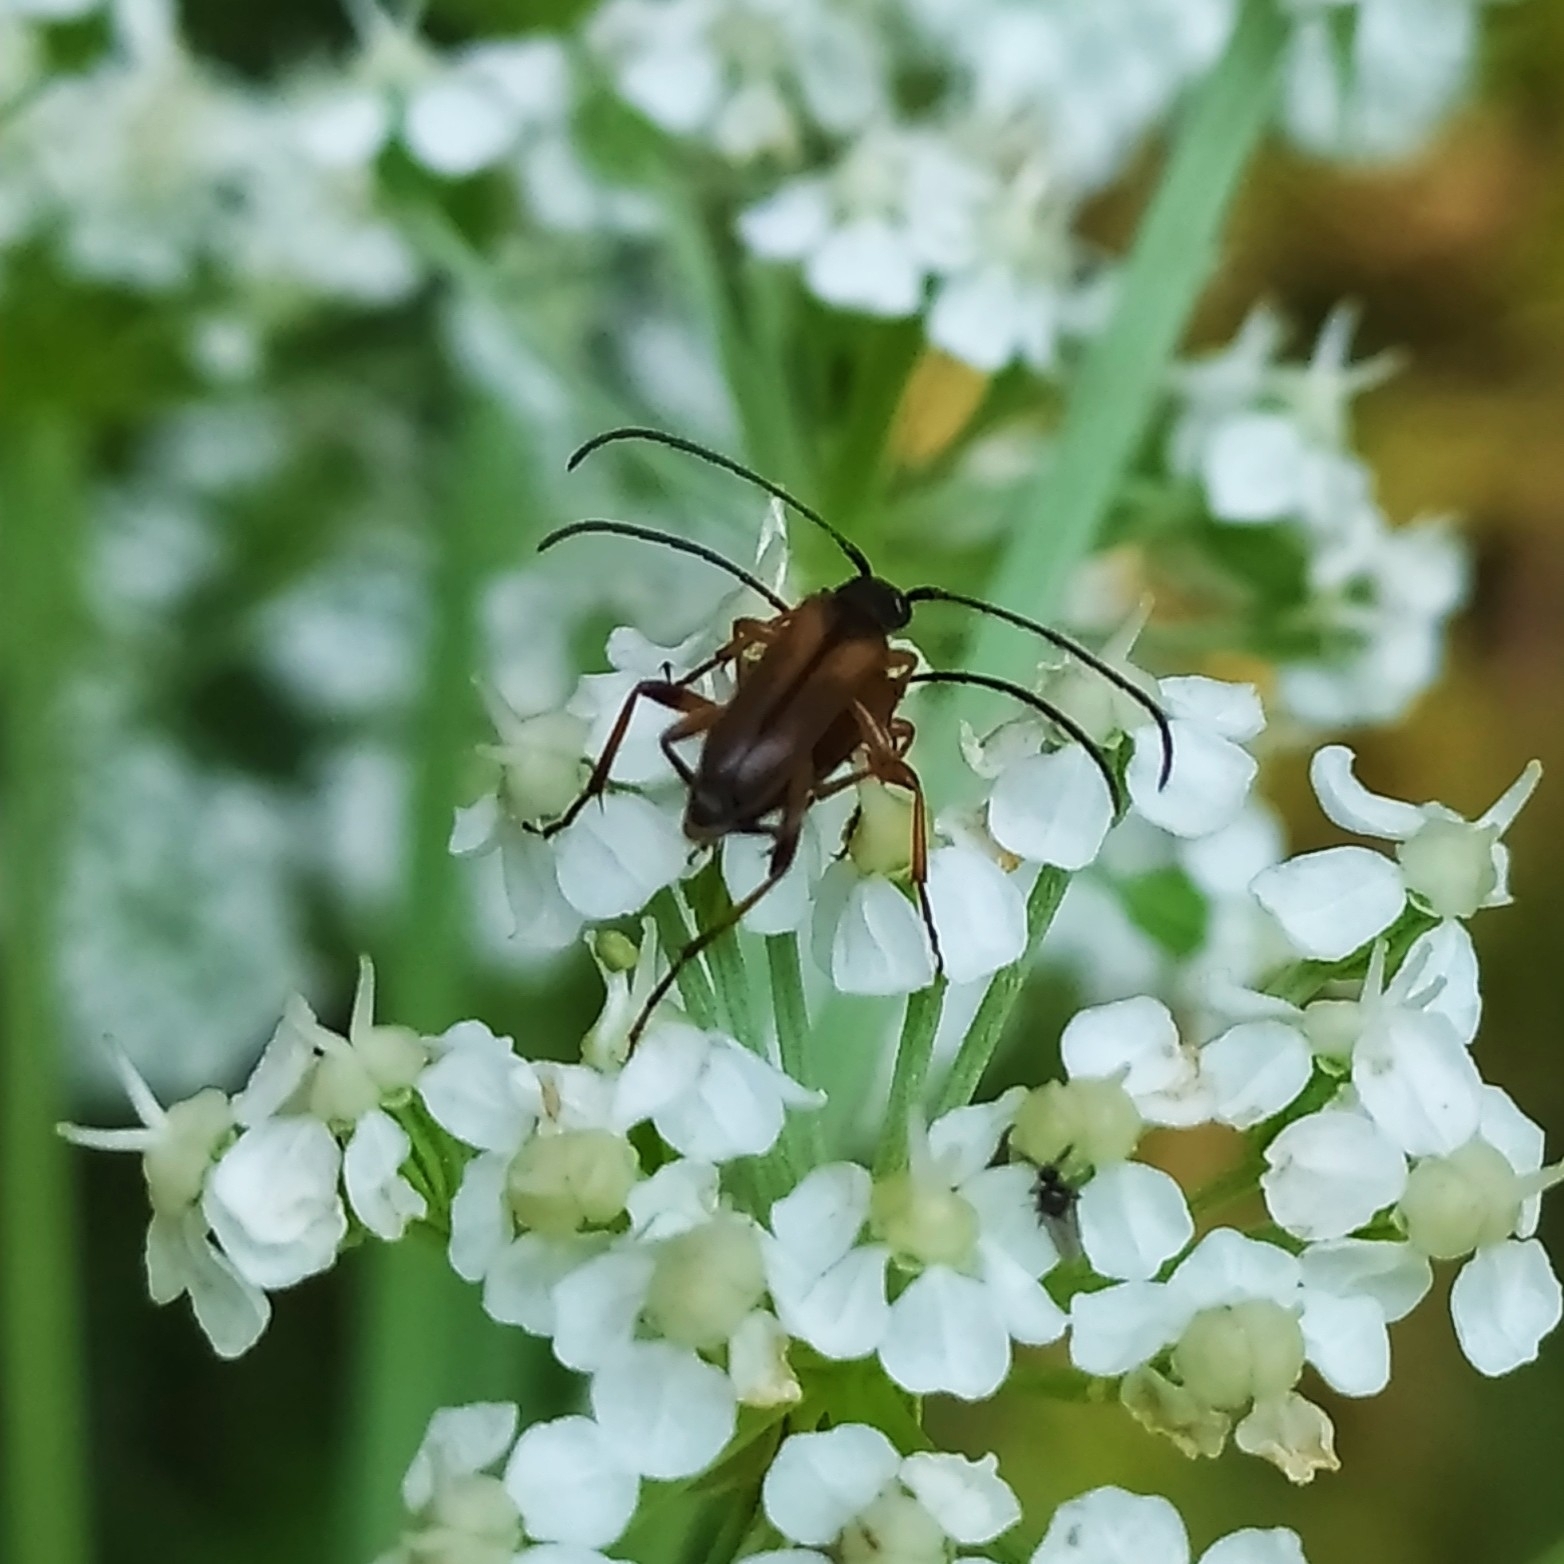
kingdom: Animalia
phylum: Arthropoda
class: Insecta
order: Coleoptera
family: Cerambycidae
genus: Alosterna
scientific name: Alosterna tabacicolor
